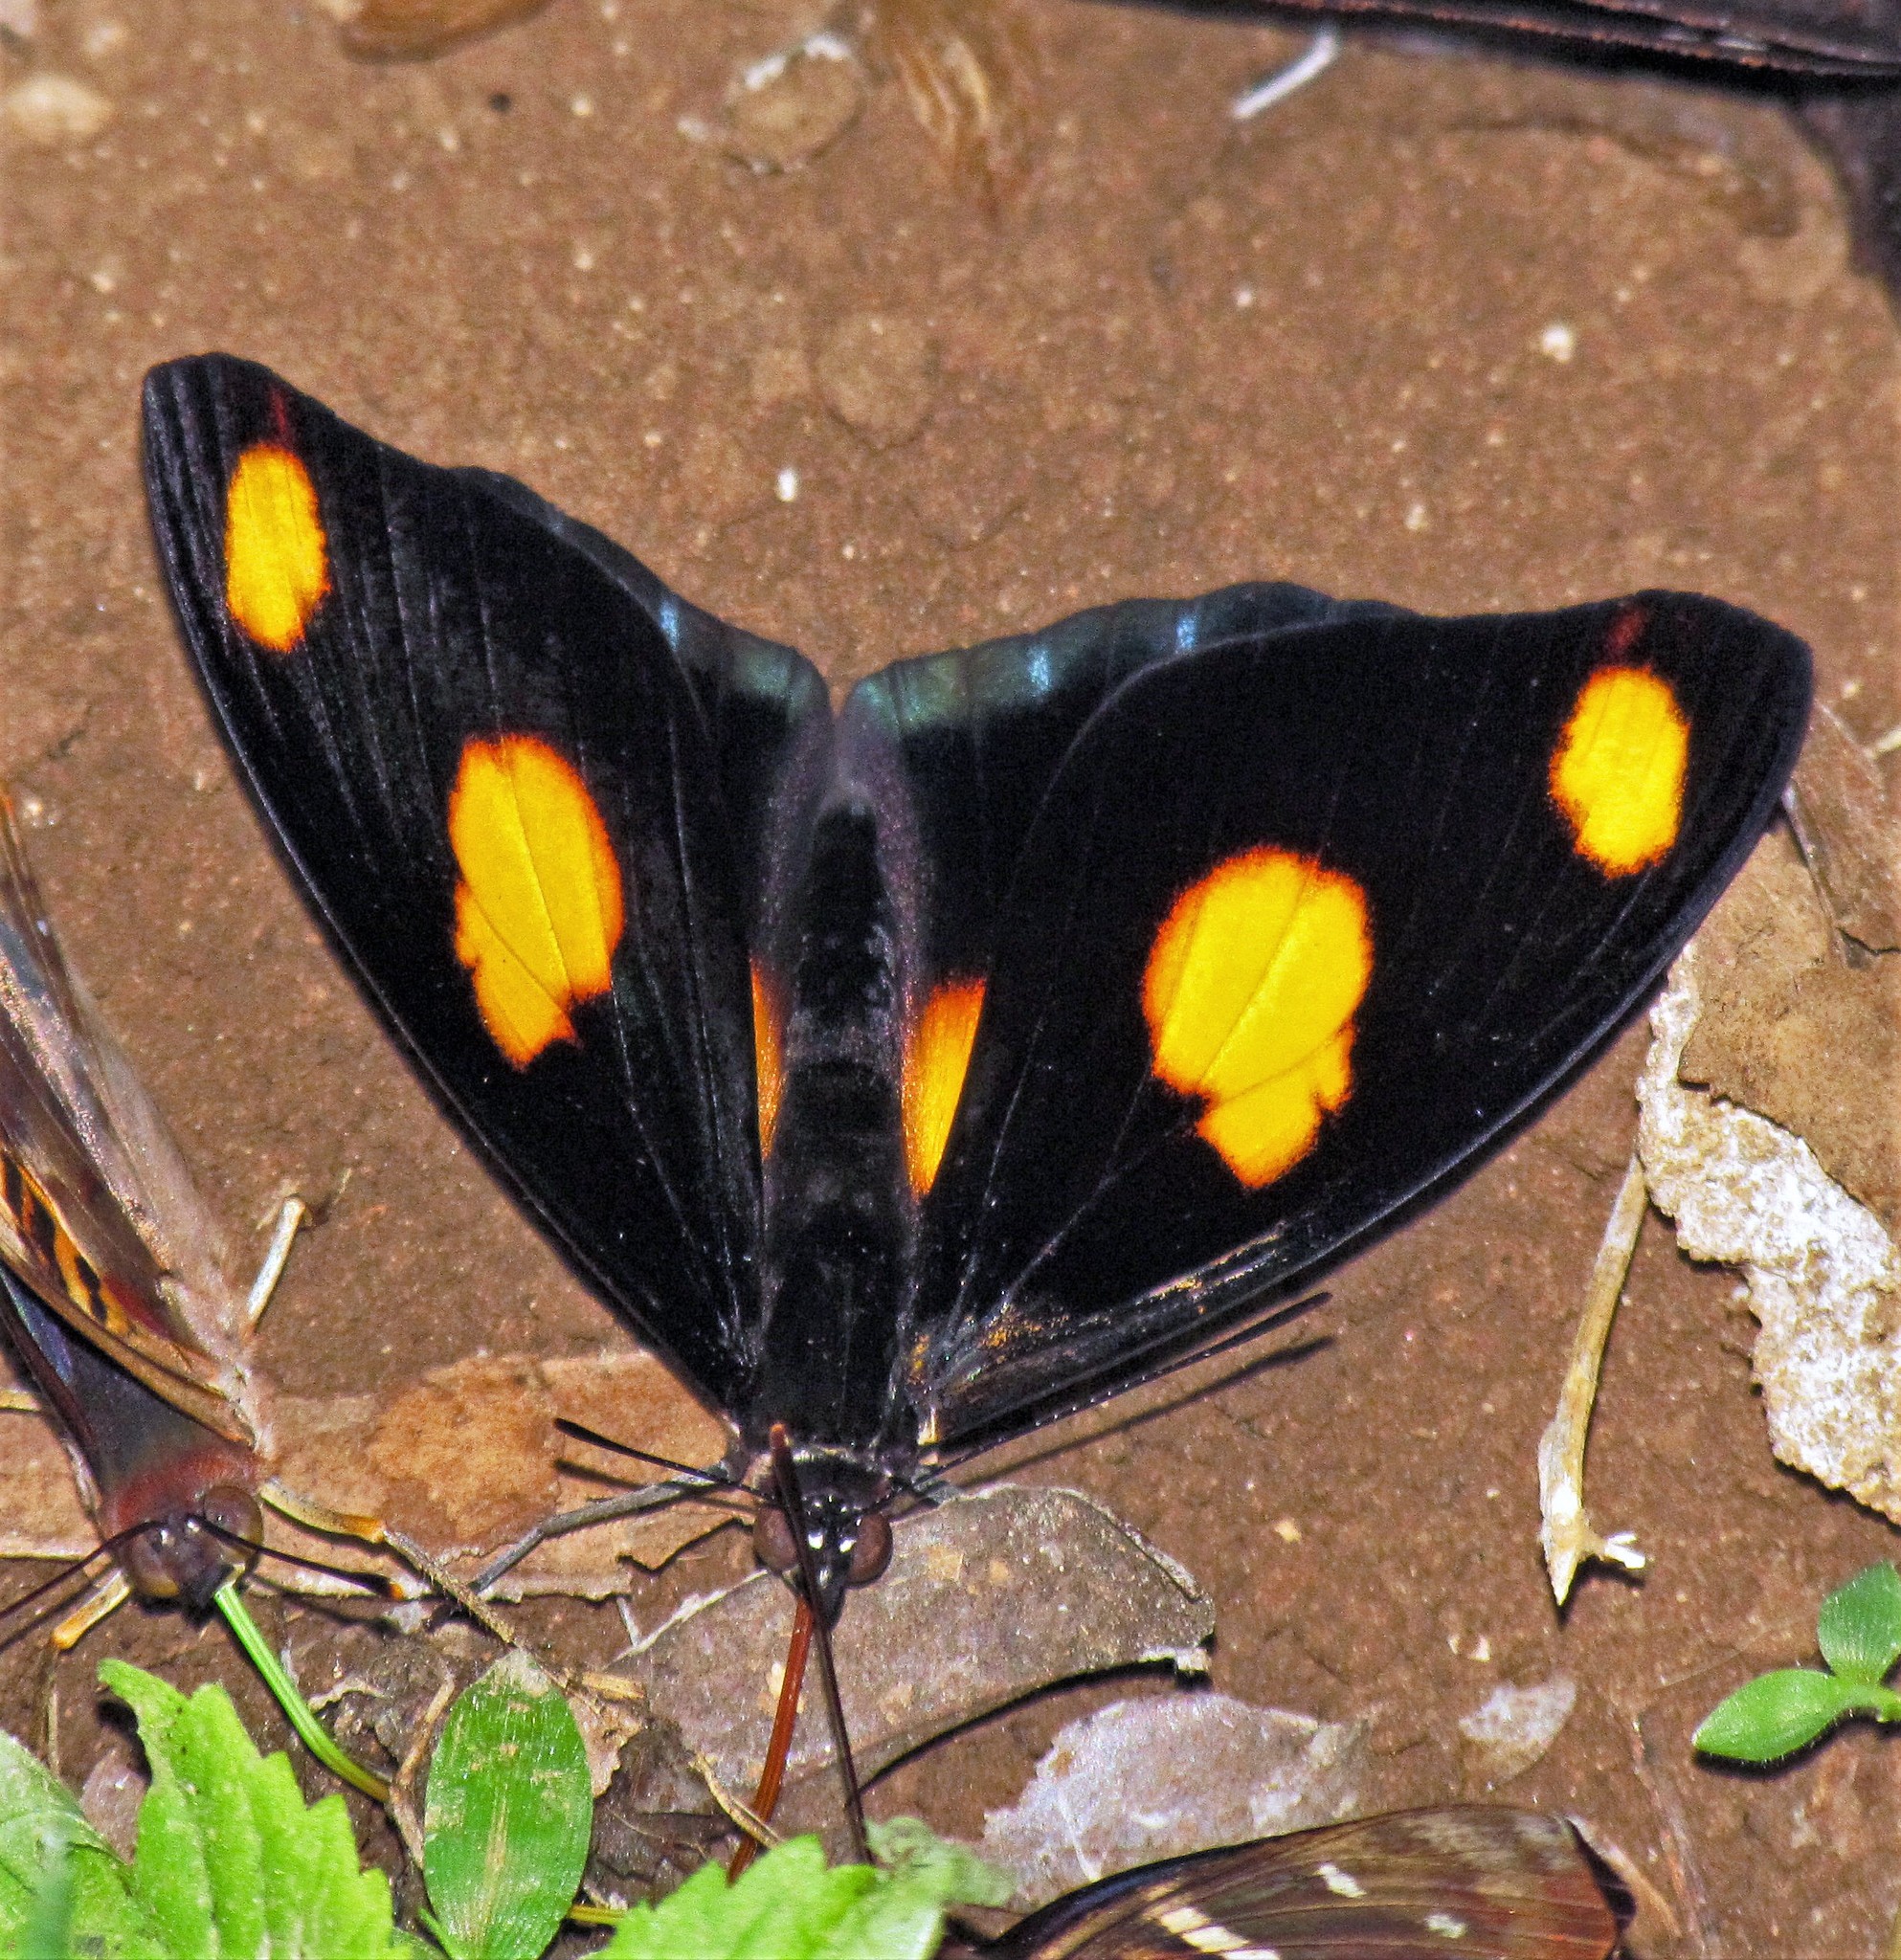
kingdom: Animalia
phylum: Arthropoda
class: Insecta
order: Lepidoptera
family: Nymphalidae
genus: Catonephele
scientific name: Catonephele numilia
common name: Blue-frosted banner
